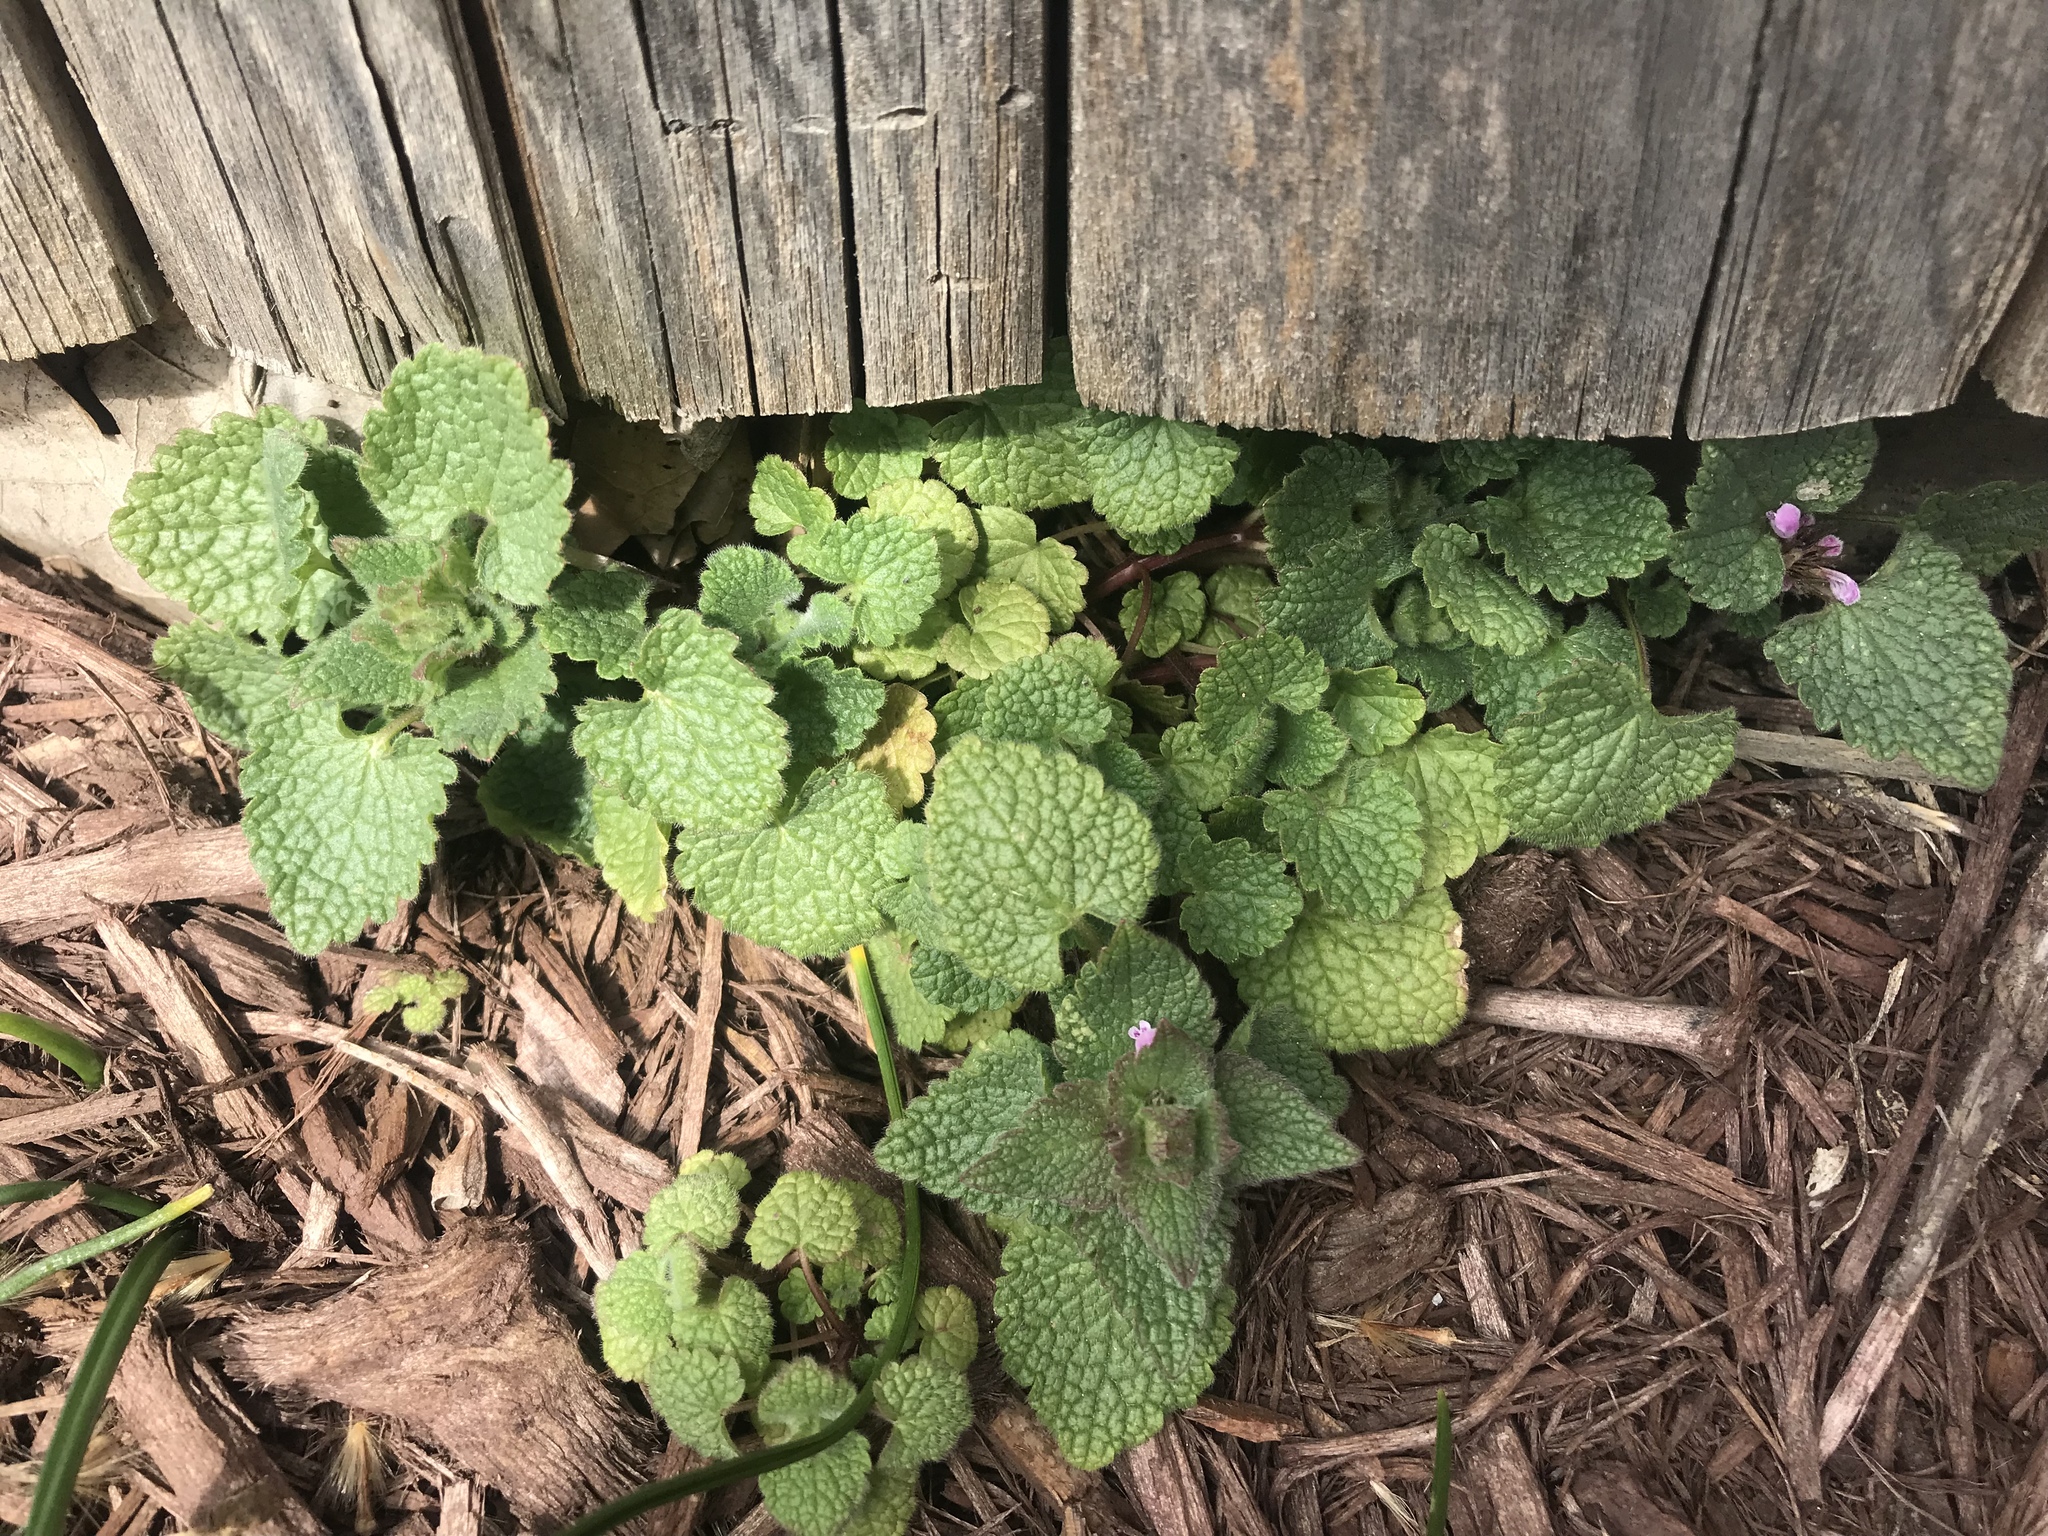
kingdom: Plantae
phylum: Tracheophyta
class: Magnoliopsida
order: Lamiales
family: Lamiaceae
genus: Lamium
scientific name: Lamium purpureum
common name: Red dead-nettle
